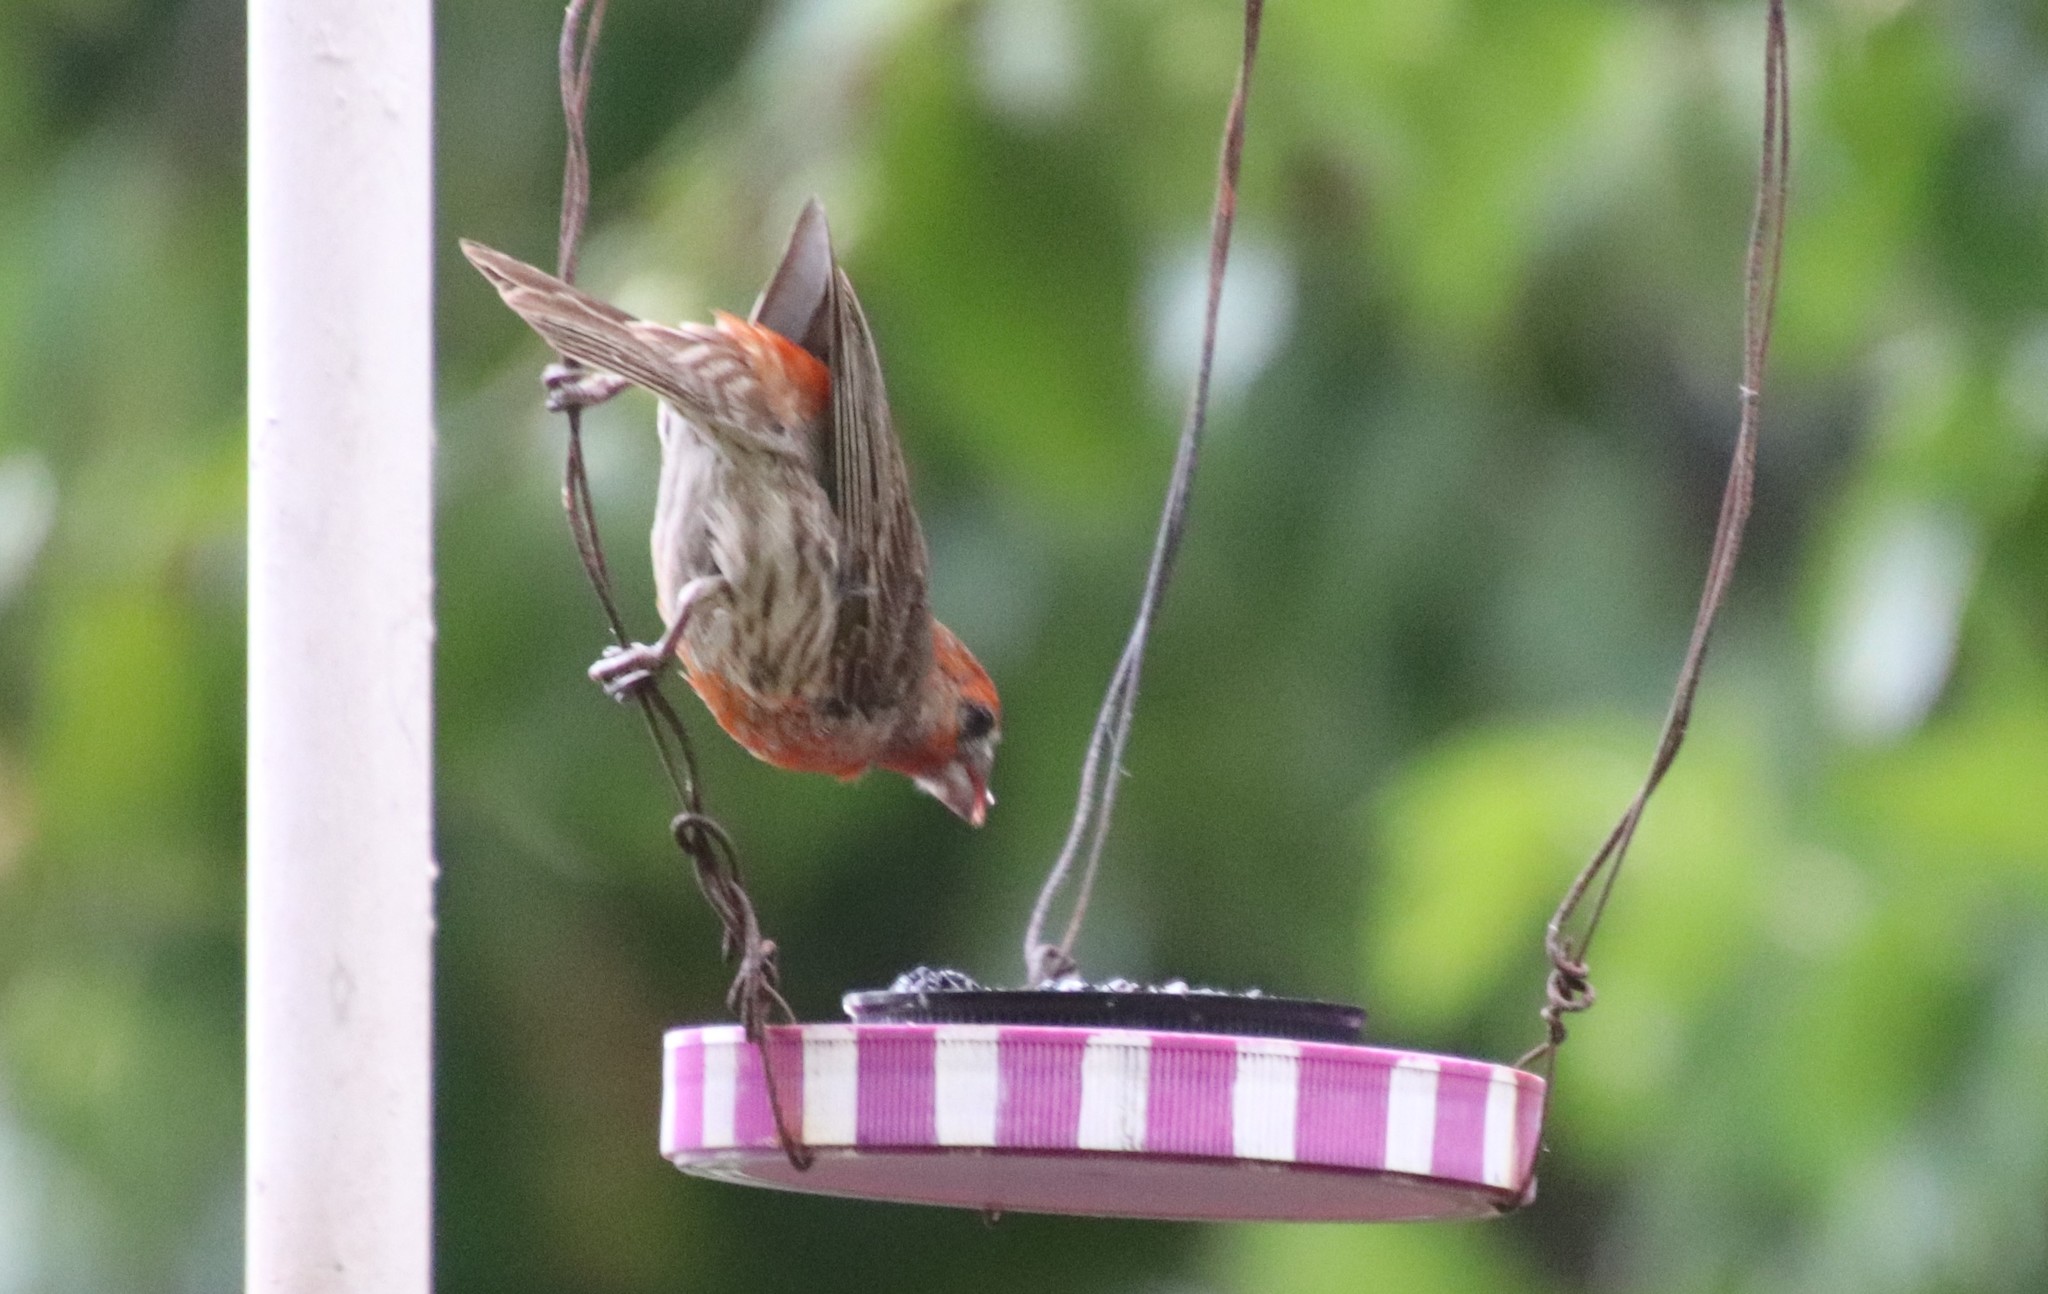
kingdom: Animalia
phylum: Chordata
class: Aves
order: Passeriformes
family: Fringillidae
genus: Haemorhous
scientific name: Haemorhous mexicanus
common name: House finch
